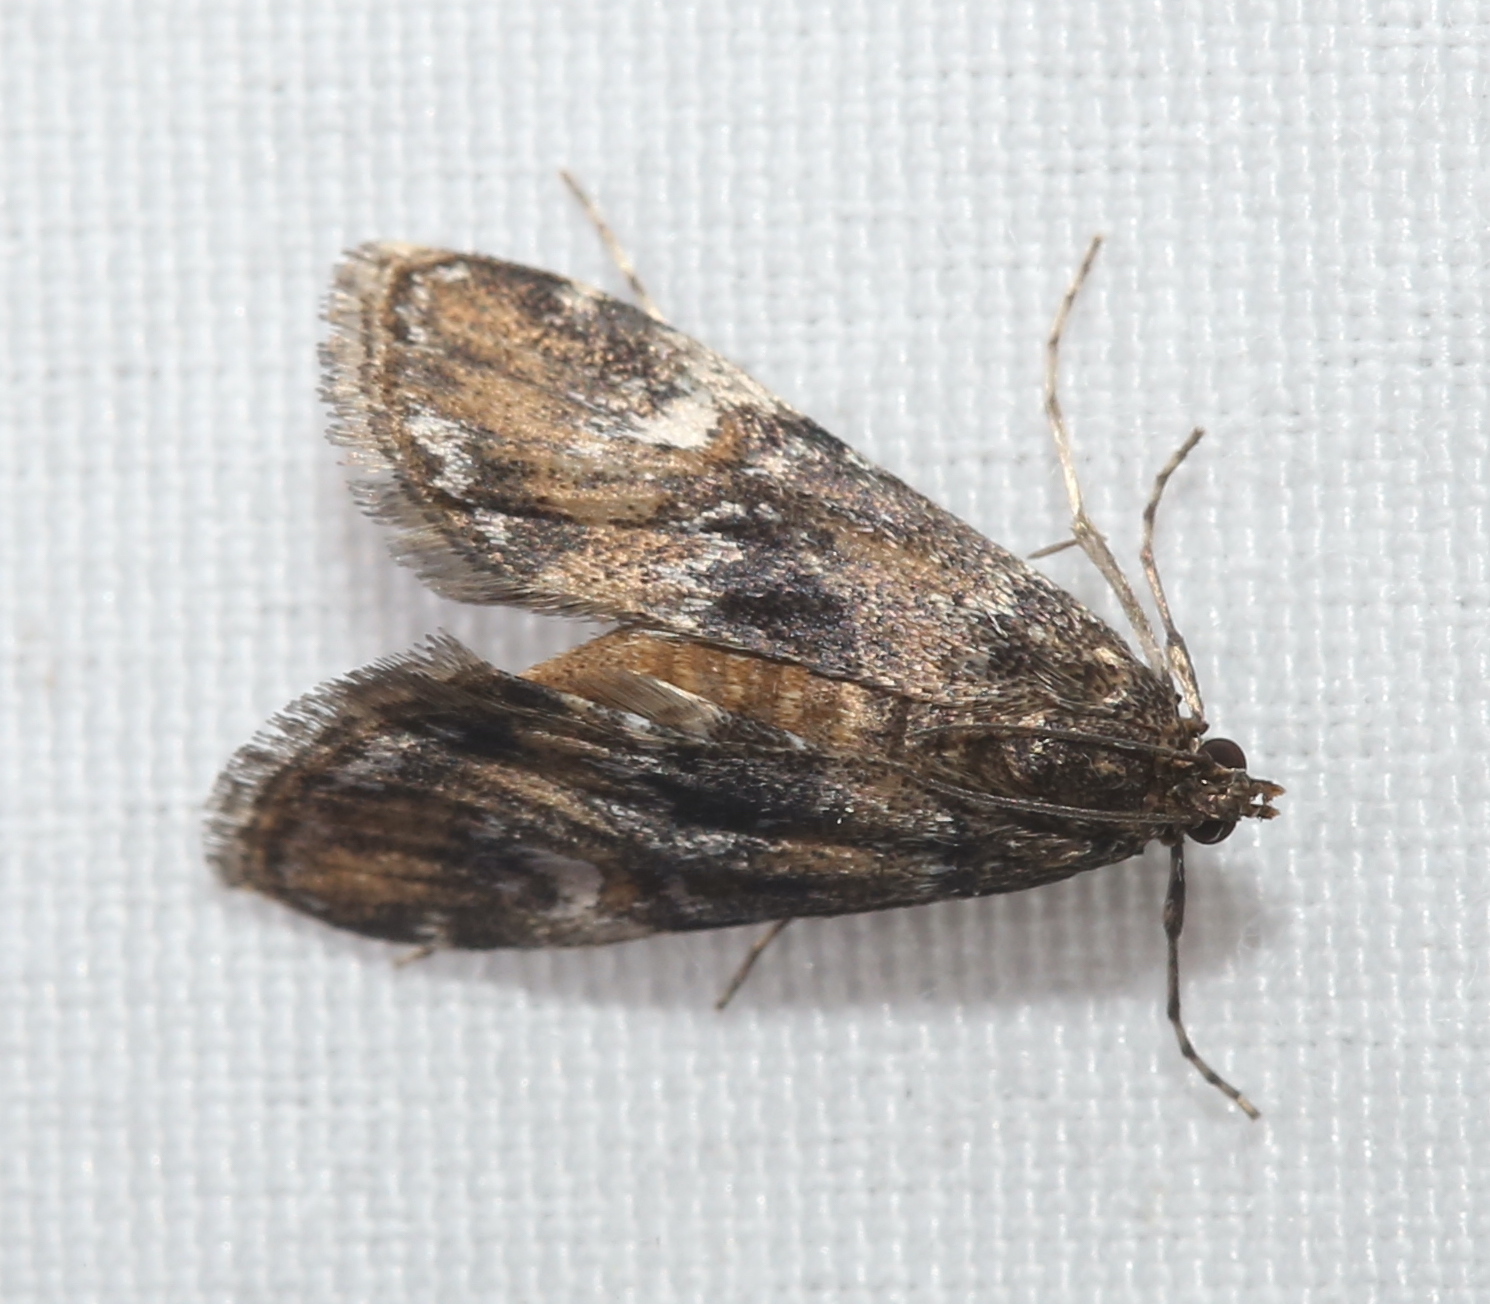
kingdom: Animalia
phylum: Arthropoda
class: Insecta
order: Lepidoptera
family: Crambidae
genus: Elophila
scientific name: Elophila obliteralis
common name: Waterlily leafcutter moth
